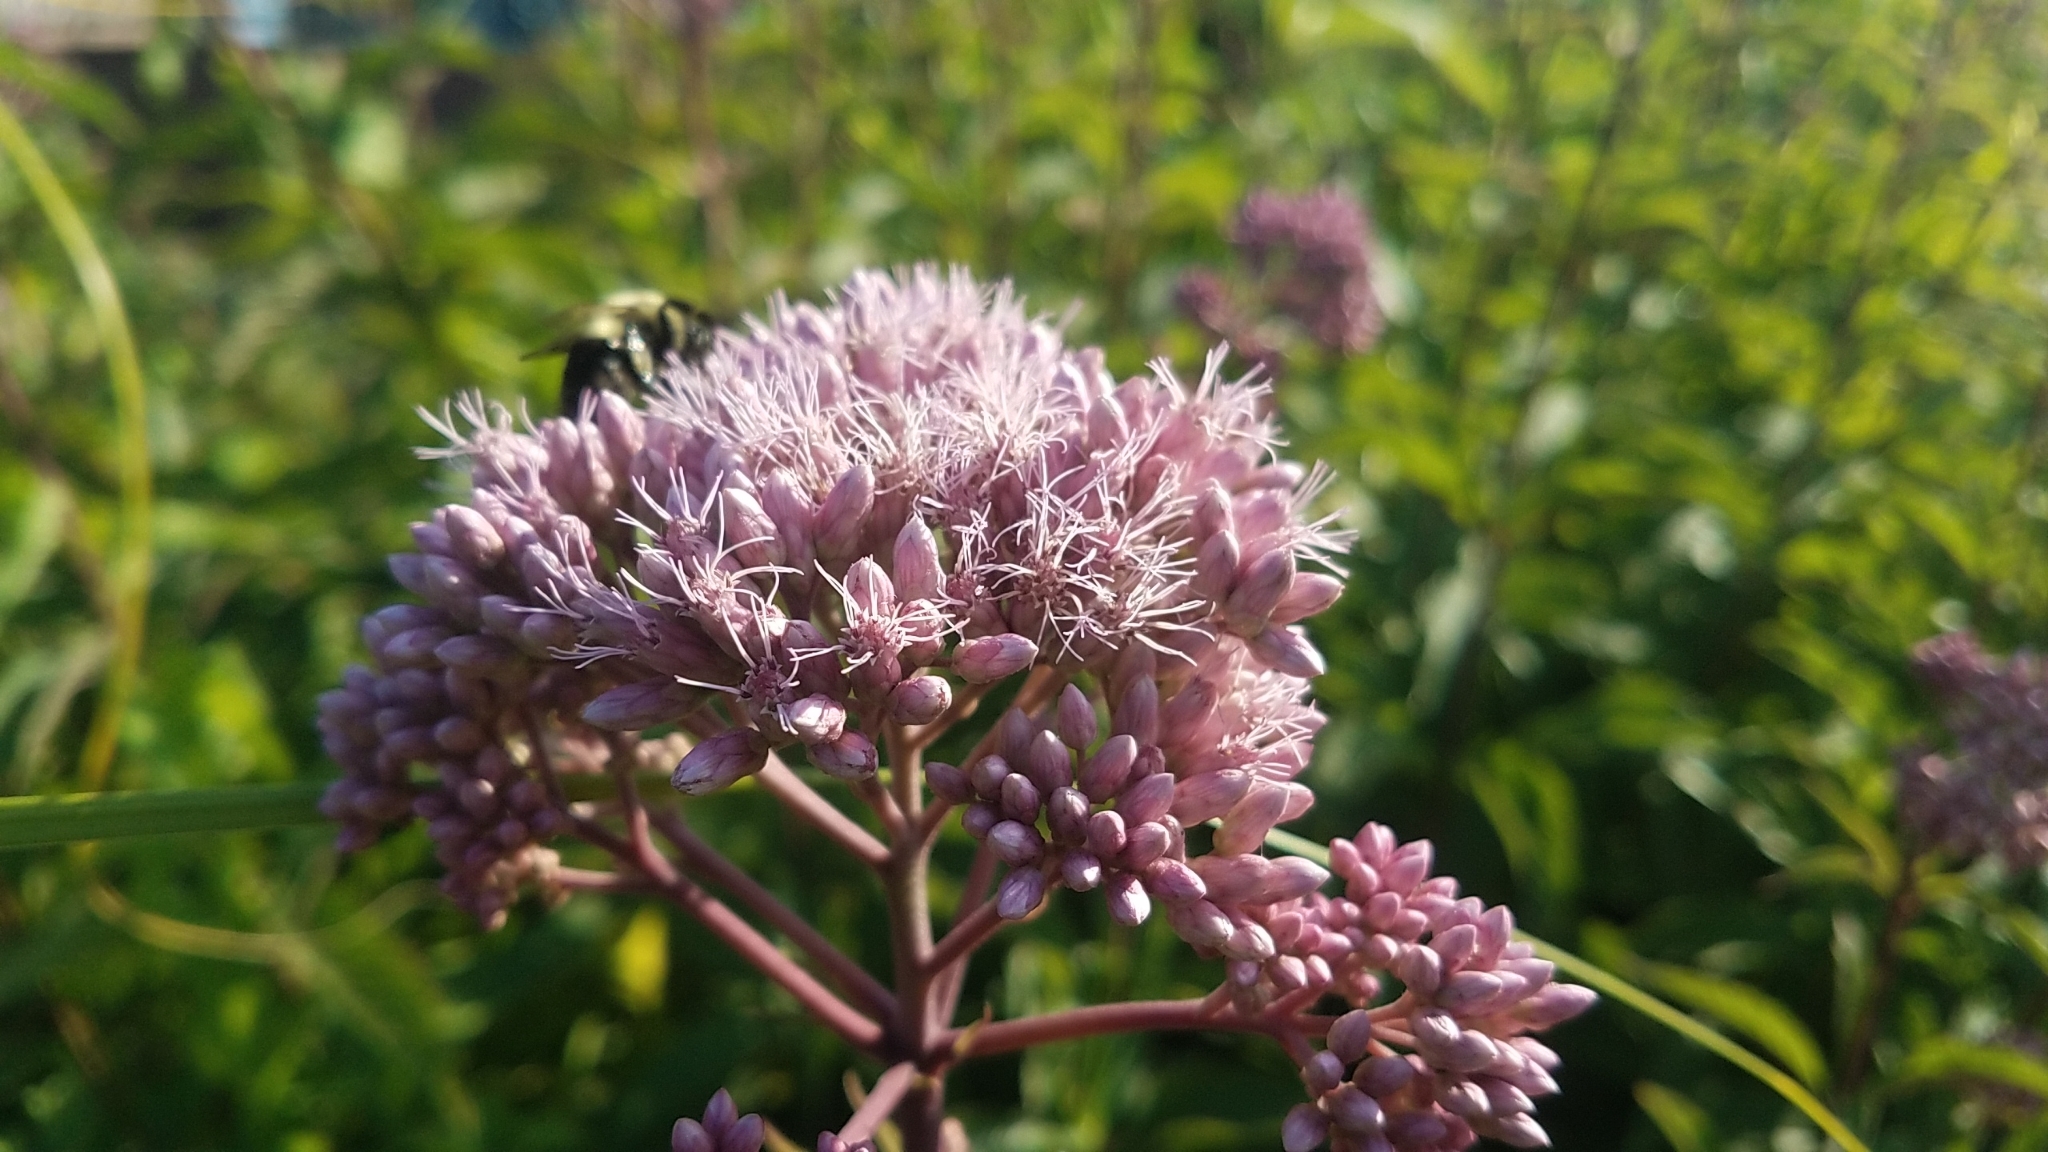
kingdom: Plantae
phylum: Tracheophyta
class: Magnoliopsida
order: Asterales
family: Asteraceae
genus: Eutrochium
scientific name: Eutrochium maculatum
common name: Spotted joe pye weed
